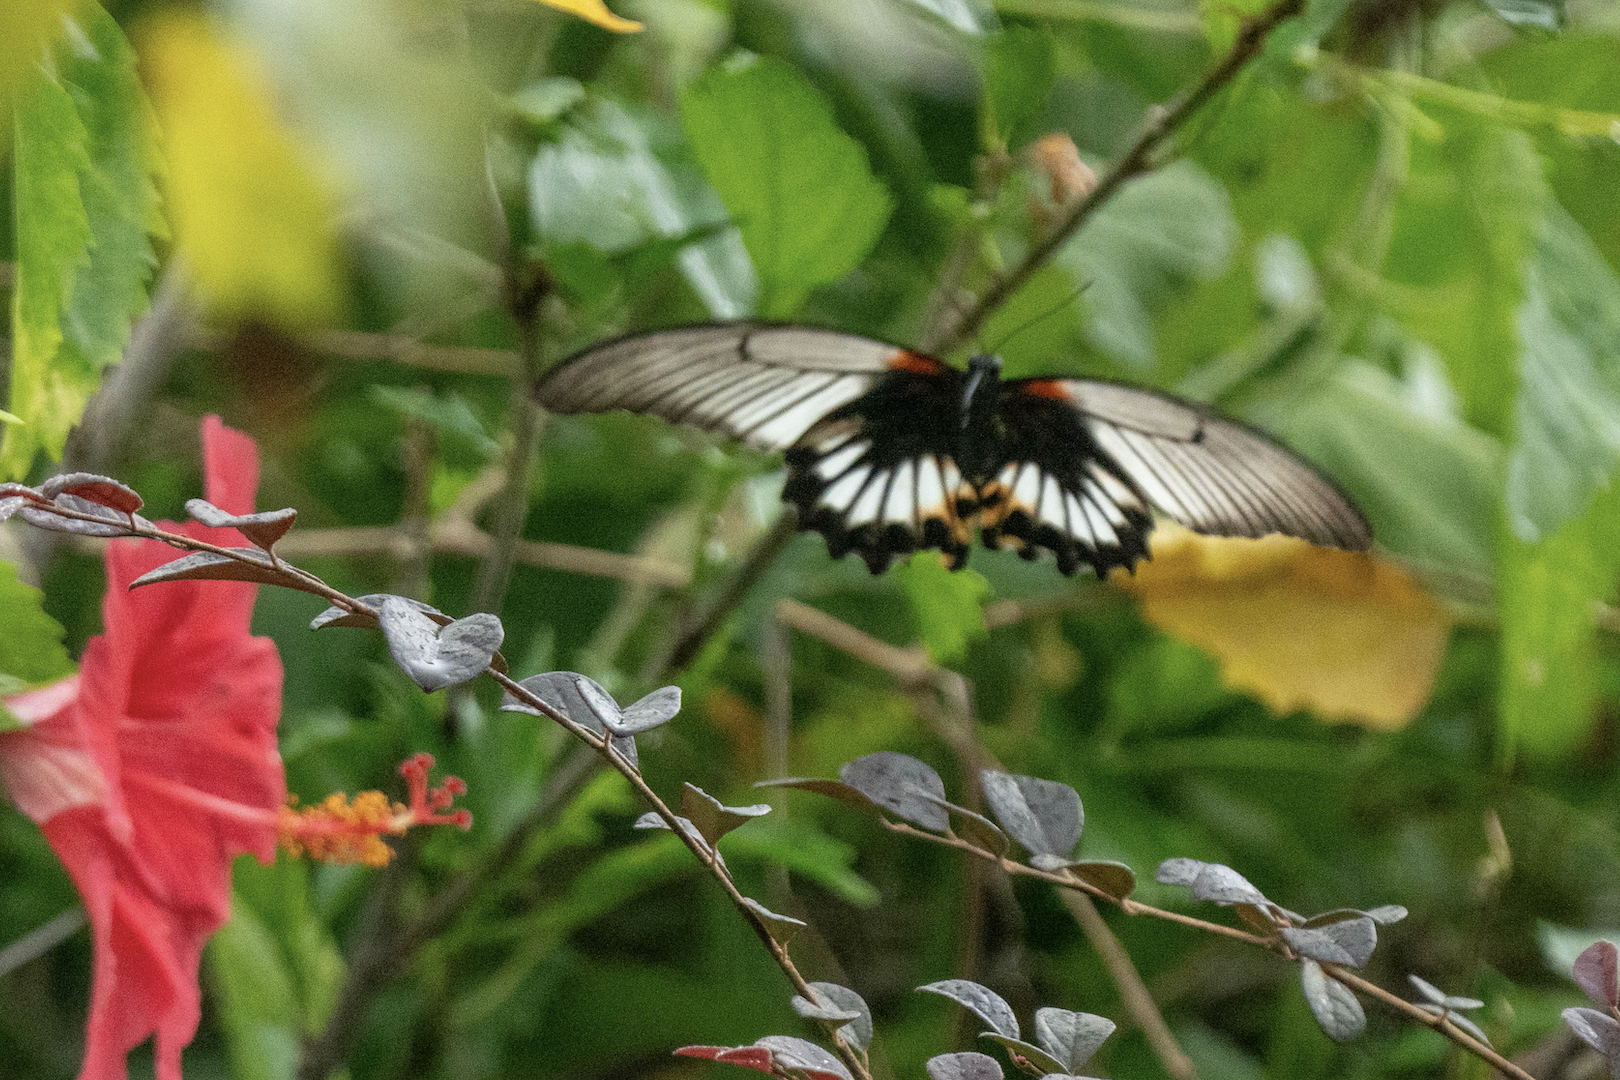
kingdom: Animalia
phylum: Arthropoda
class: Insecta
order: Lepidoptera
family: Papilionidae
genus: Papilio
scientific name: Papilio memnon
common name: Great mormon
